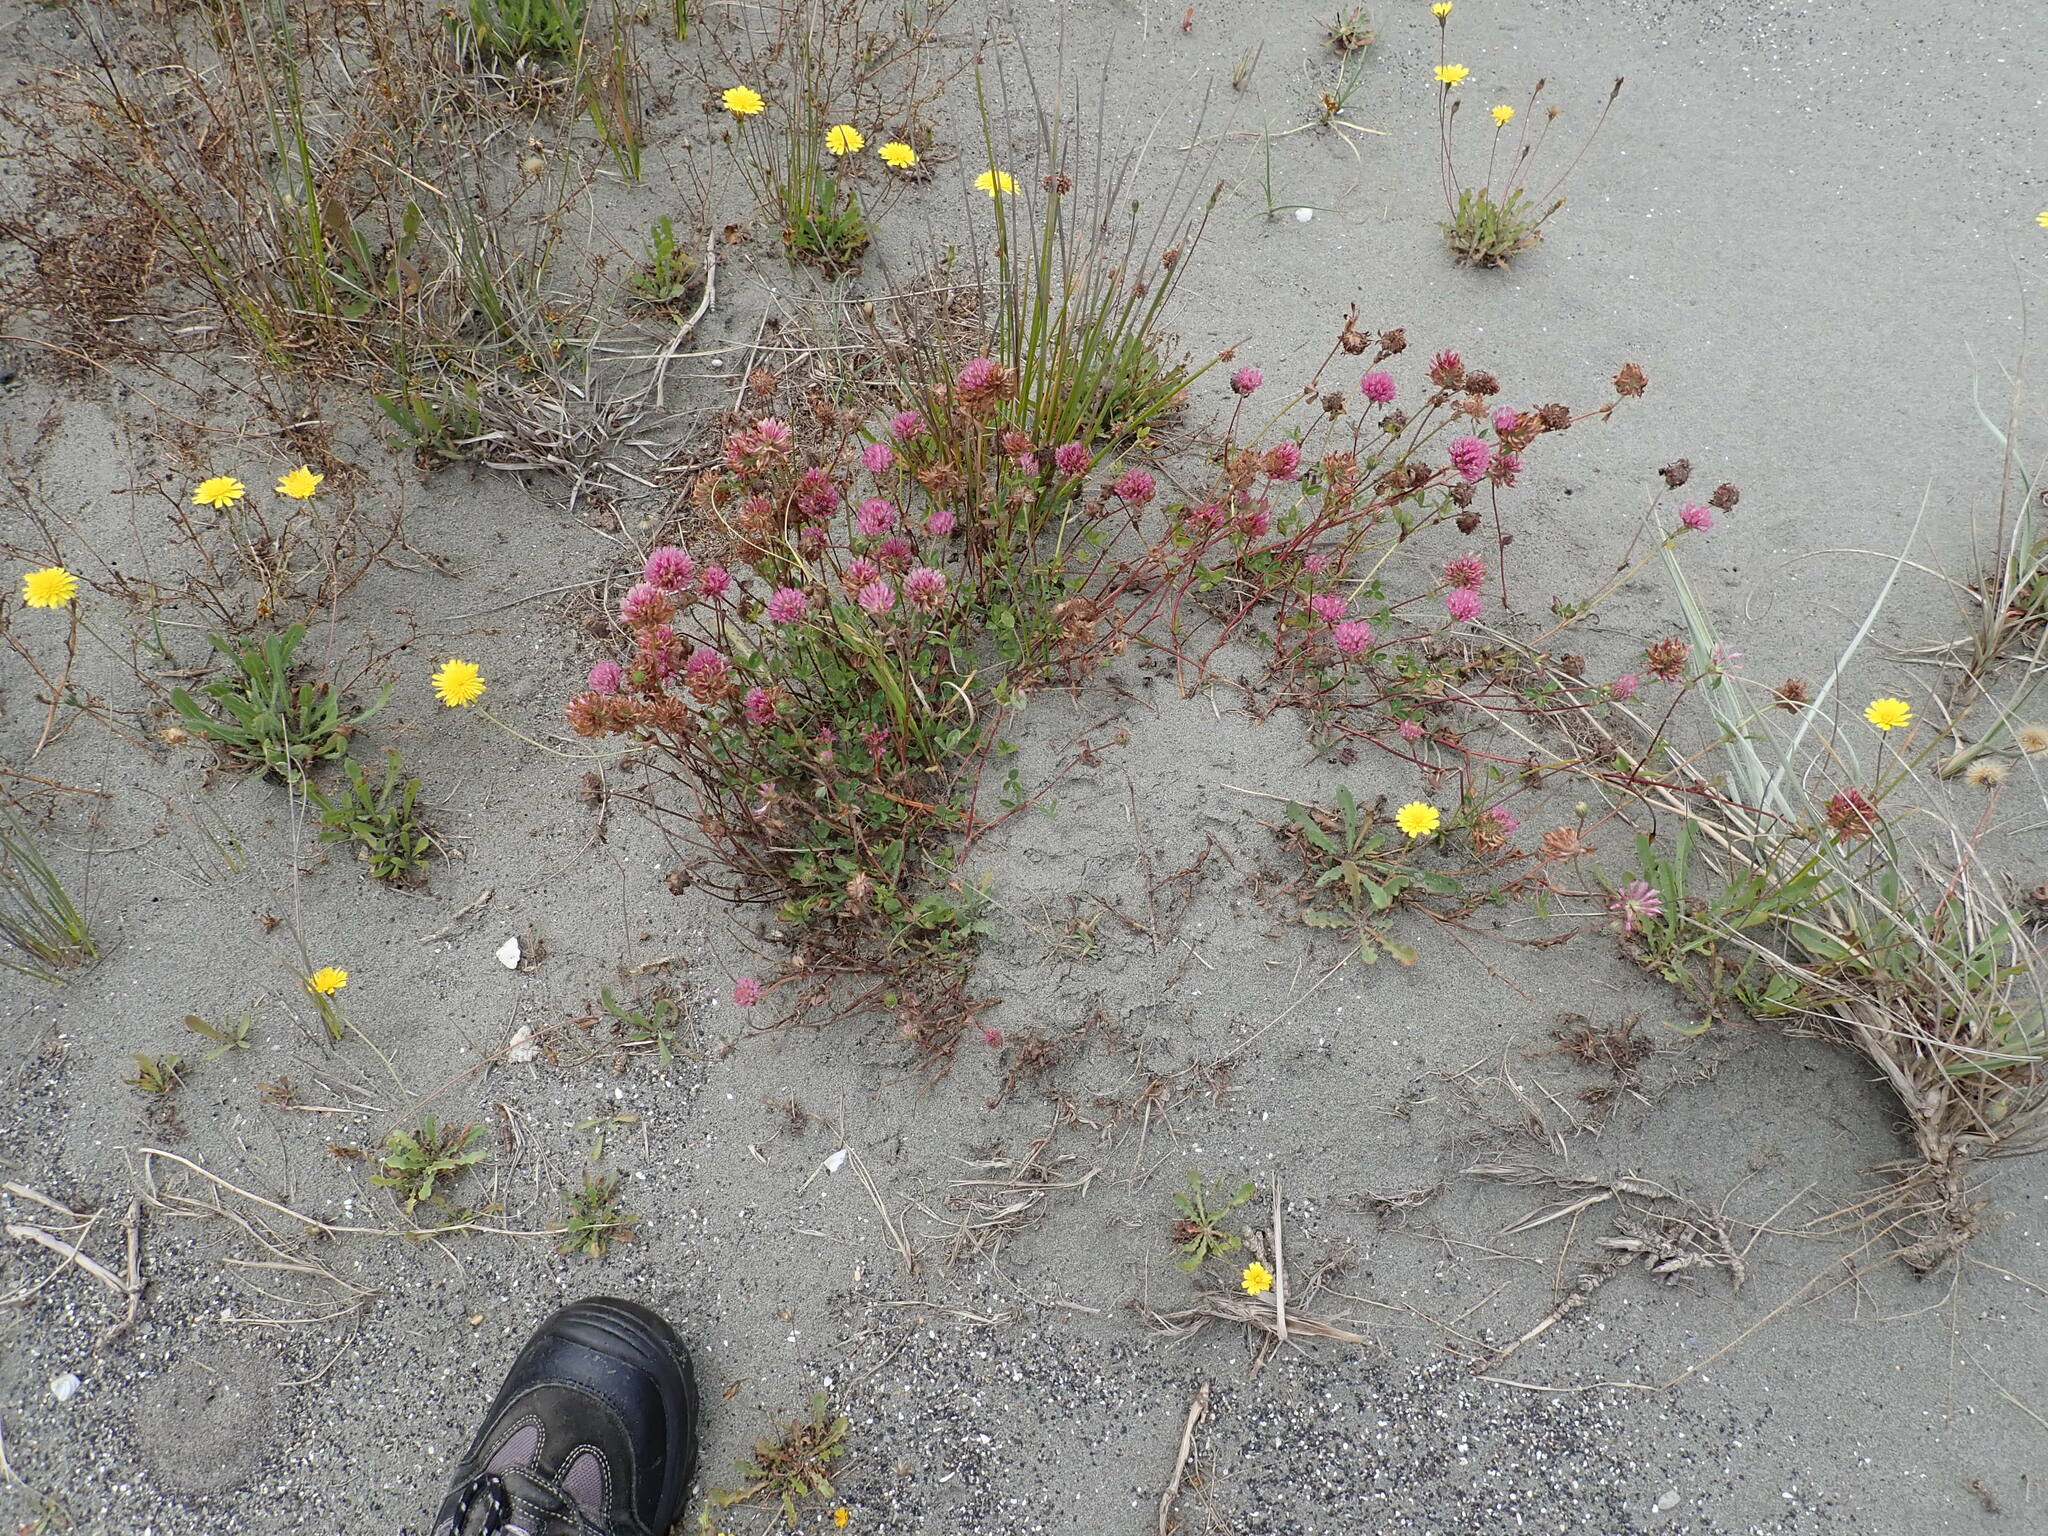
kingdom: Plantae
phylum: Tracheophyta
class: Magnoliopsida
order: Fabales
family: Fabaceae
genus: Trifolium
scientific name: Trifolium pratense
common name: Red clover
